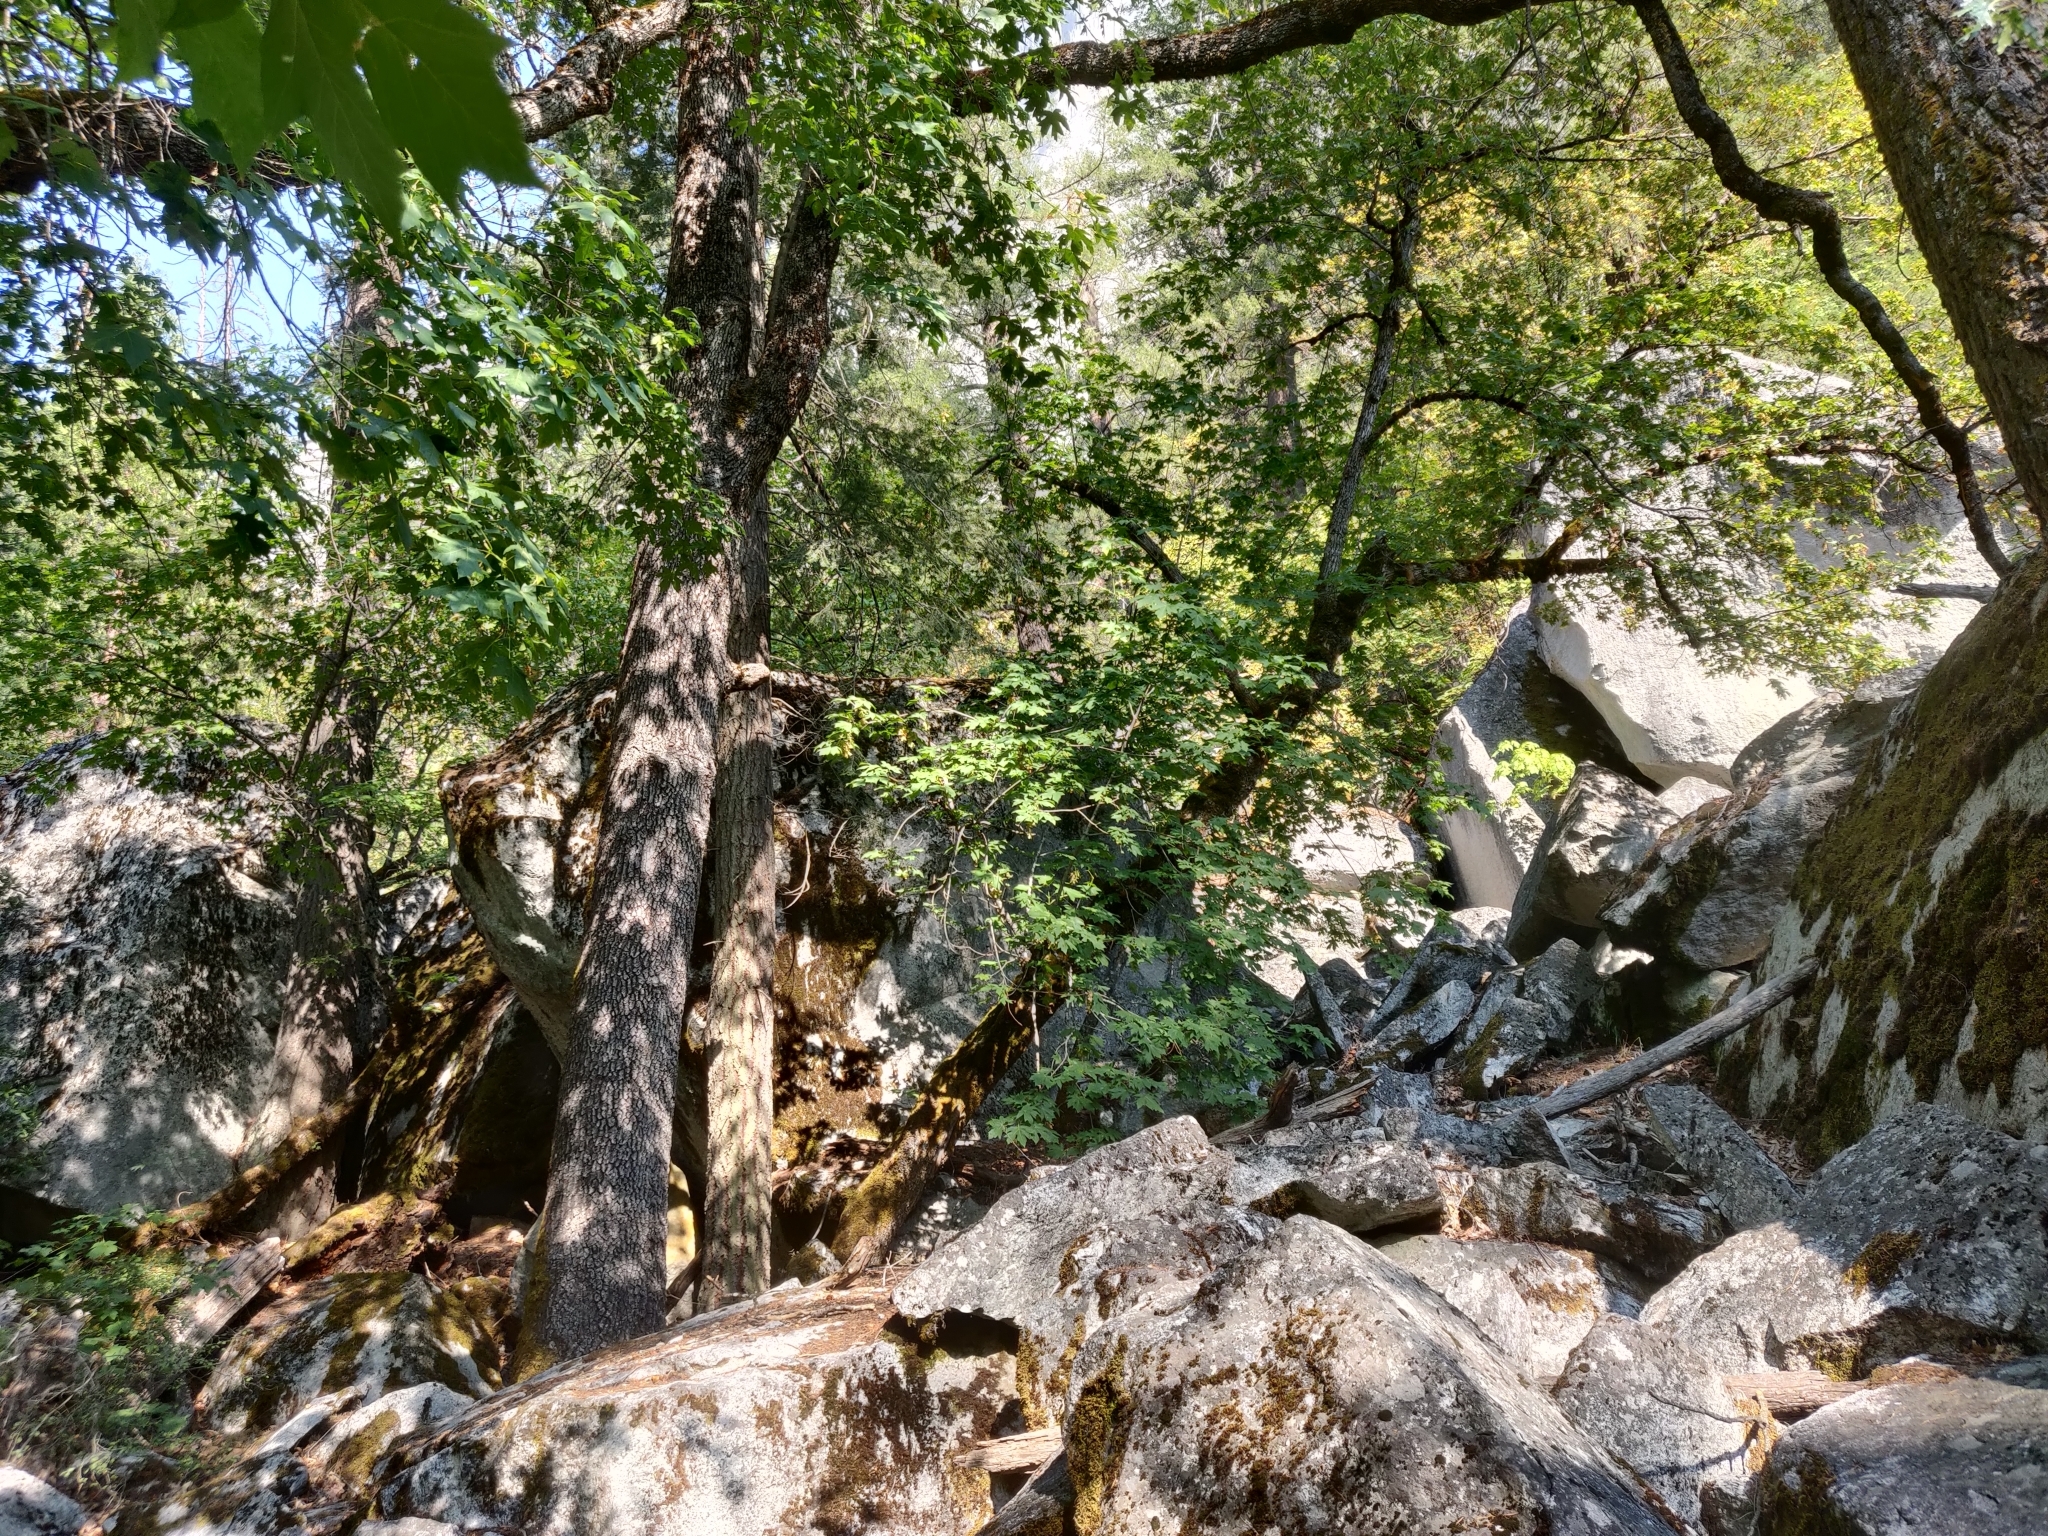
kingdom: Plantae
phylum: Tracheophyta
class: Magnoliopsida
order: Sapindales
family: Sapindaceae
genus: Acer
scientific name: Acer macrophyllum
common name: Oregon maple
